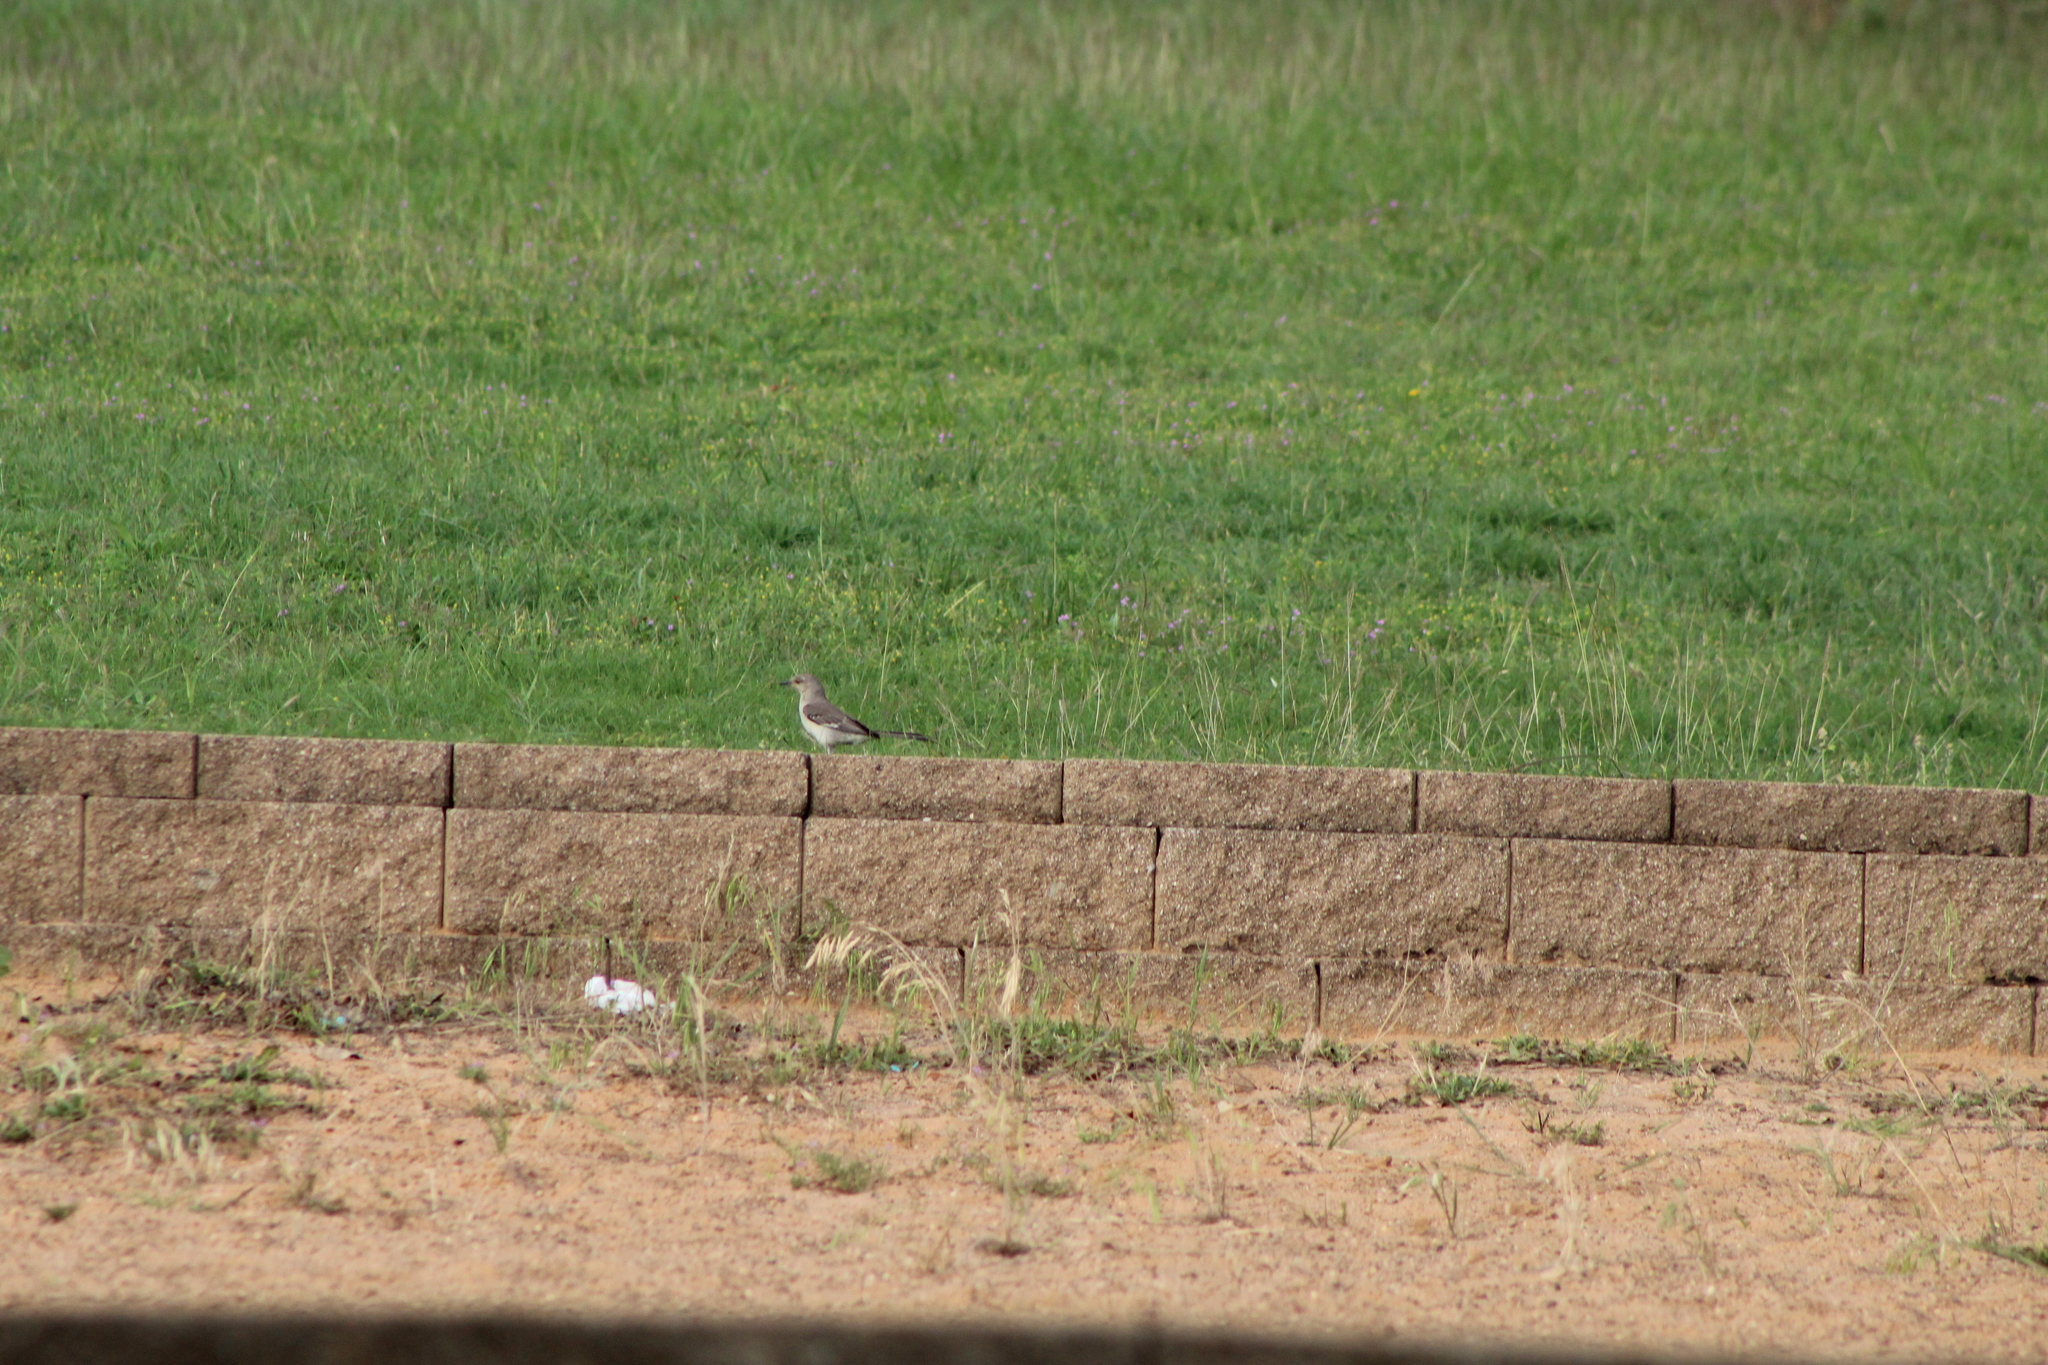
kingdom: Animalia
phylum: Chordata
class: Aves
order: Passeriformes
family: Mimidae
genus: Mimus
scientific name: Mimus polyglottos
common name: Northern mockingbird
